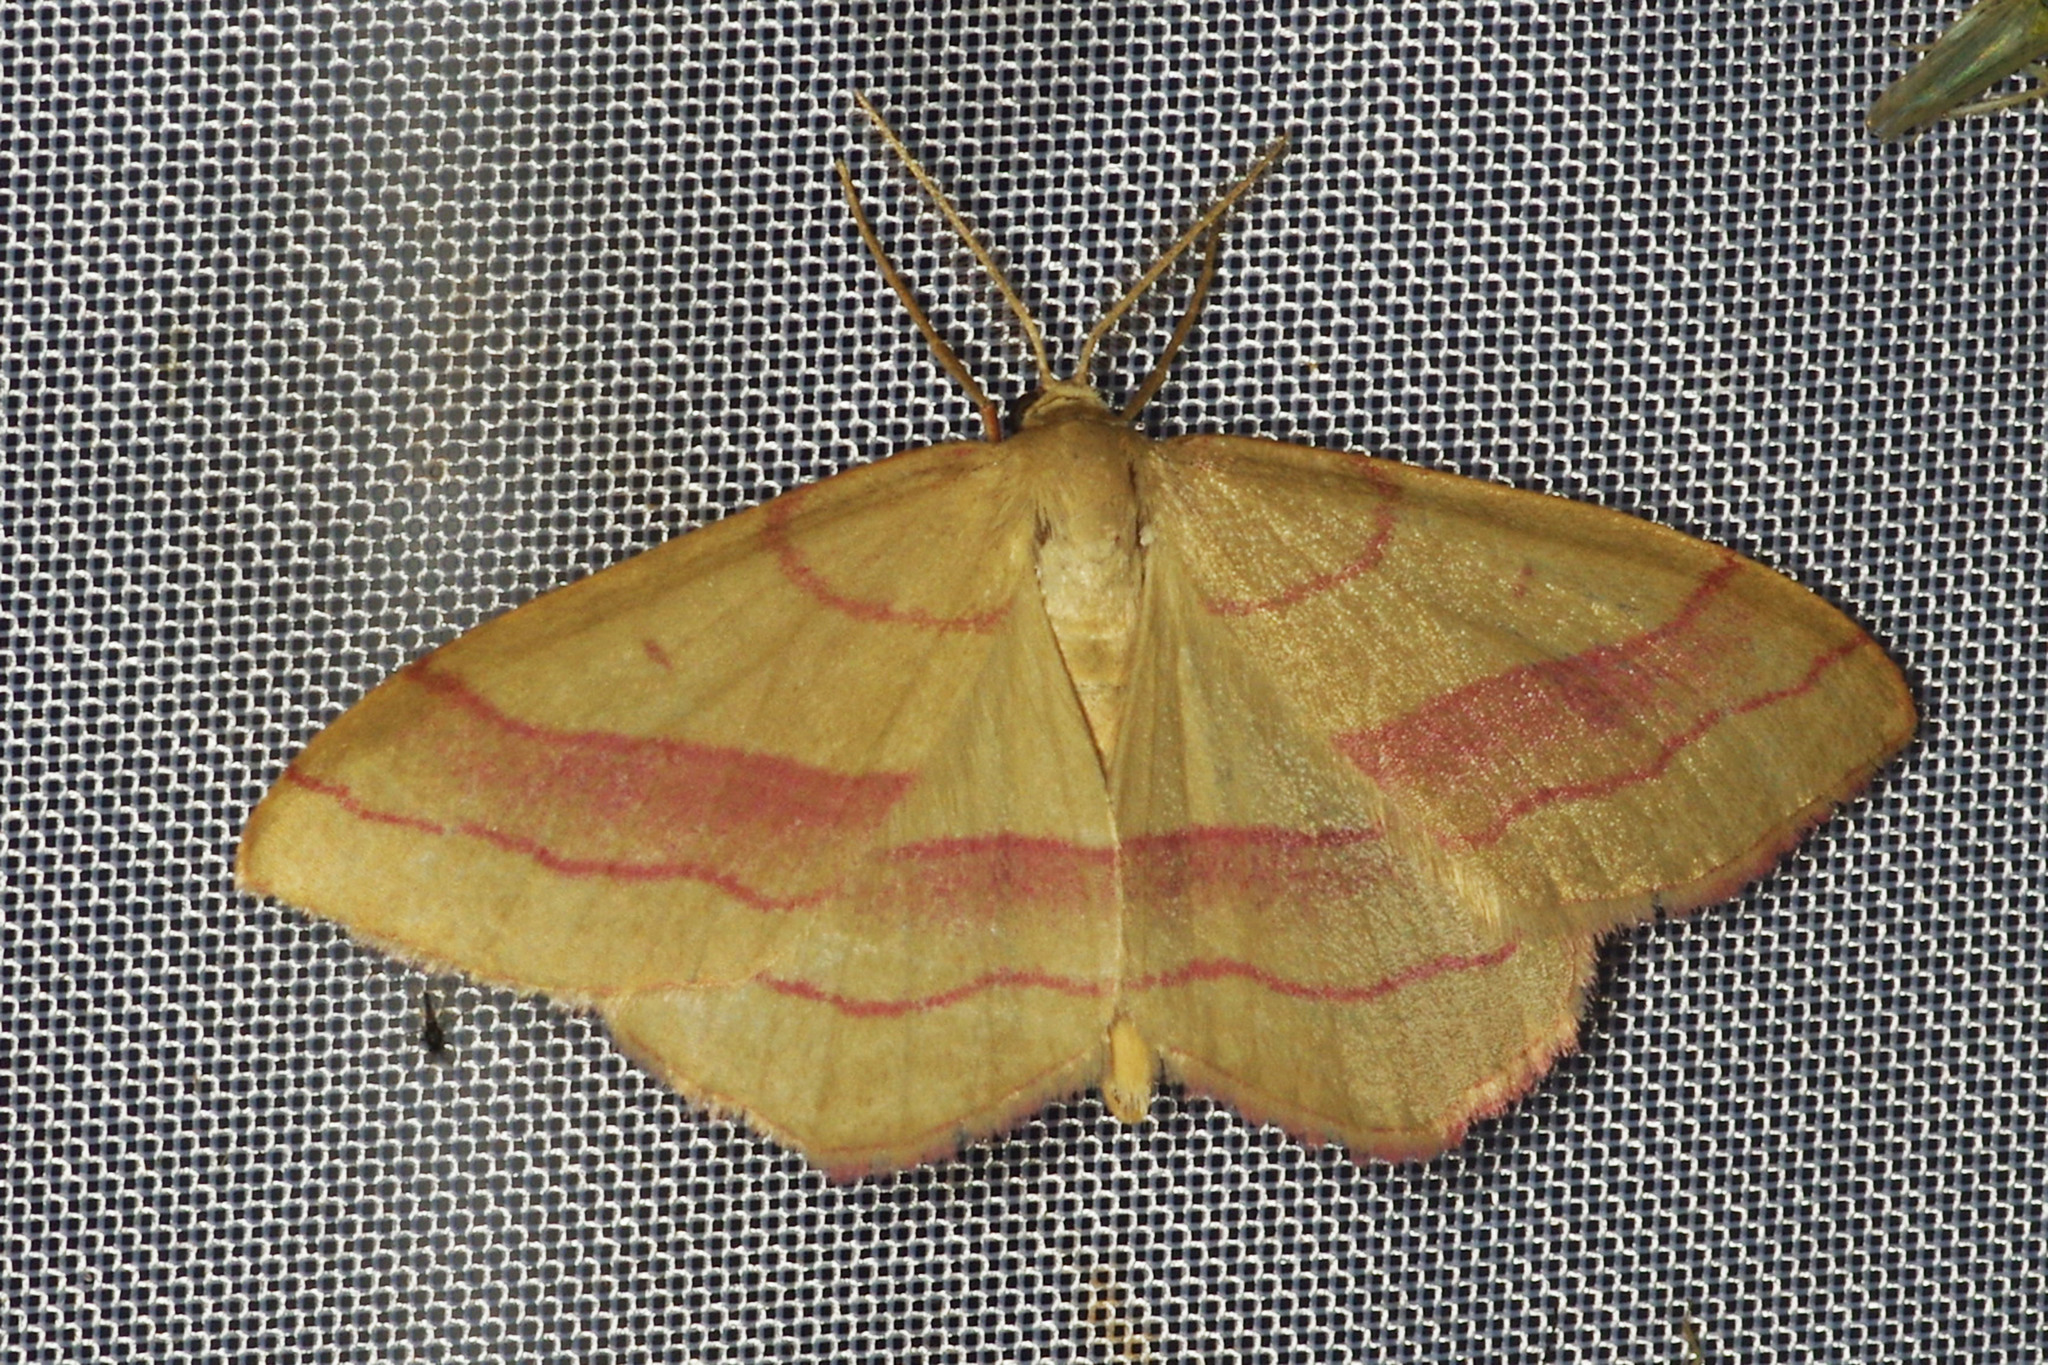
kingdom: Animalia
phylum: Arthropoda
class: Insecta
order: Lepidoptera
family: Geometridae
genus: Rhodostrophia
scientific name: Rhodostrophia vibicaria
